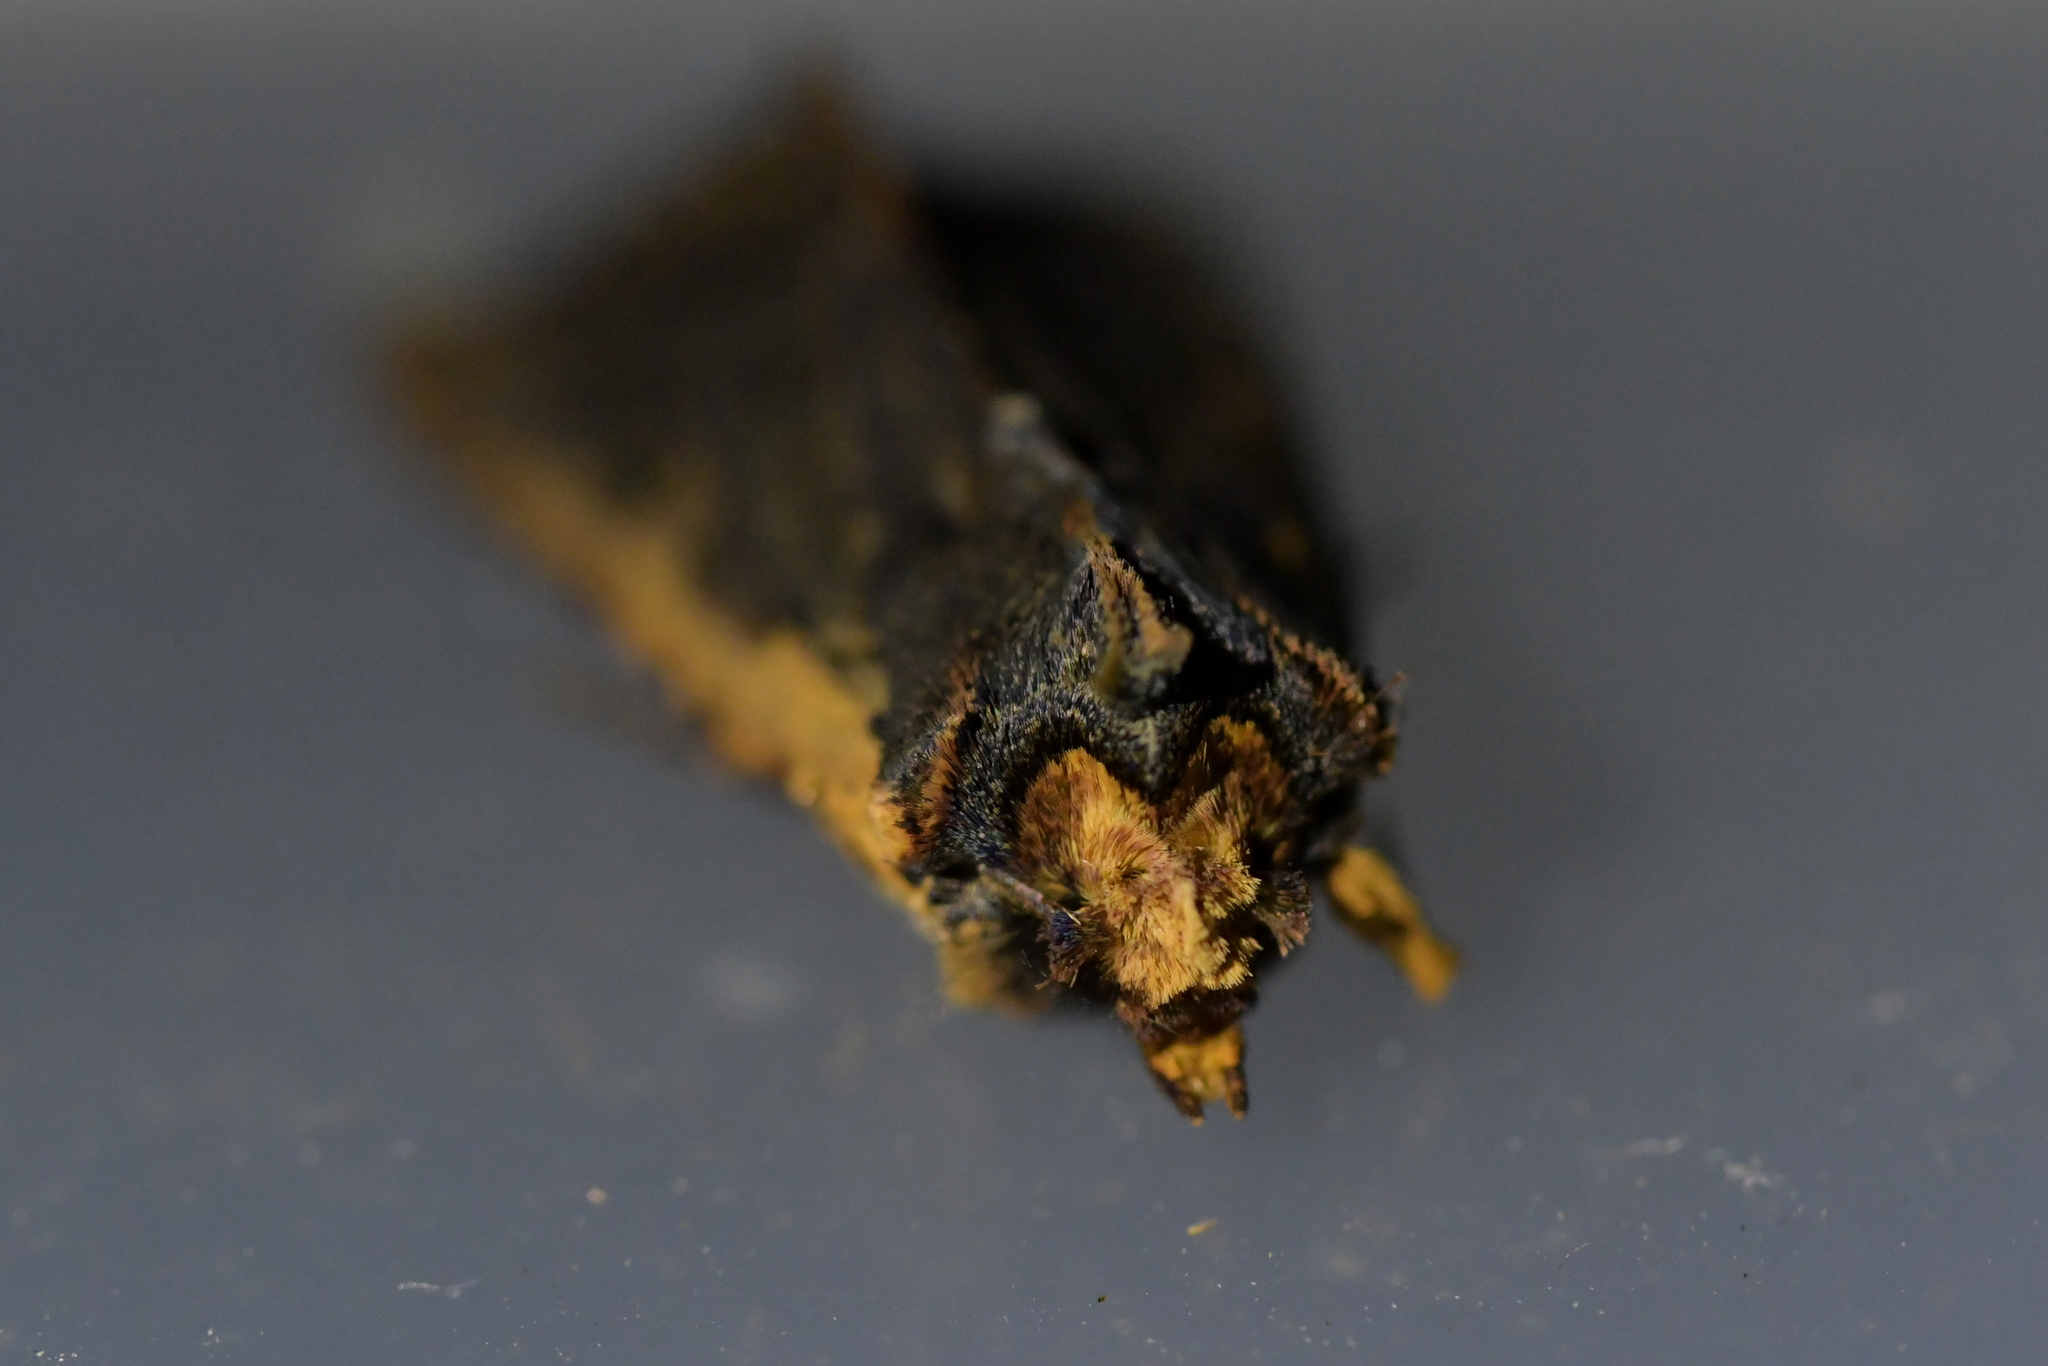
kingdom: Animalia
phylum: Arthropoda
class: Insecta
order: Lepidoptera
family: Noctuidae
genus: Meterana
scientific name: Meterana alcyone
